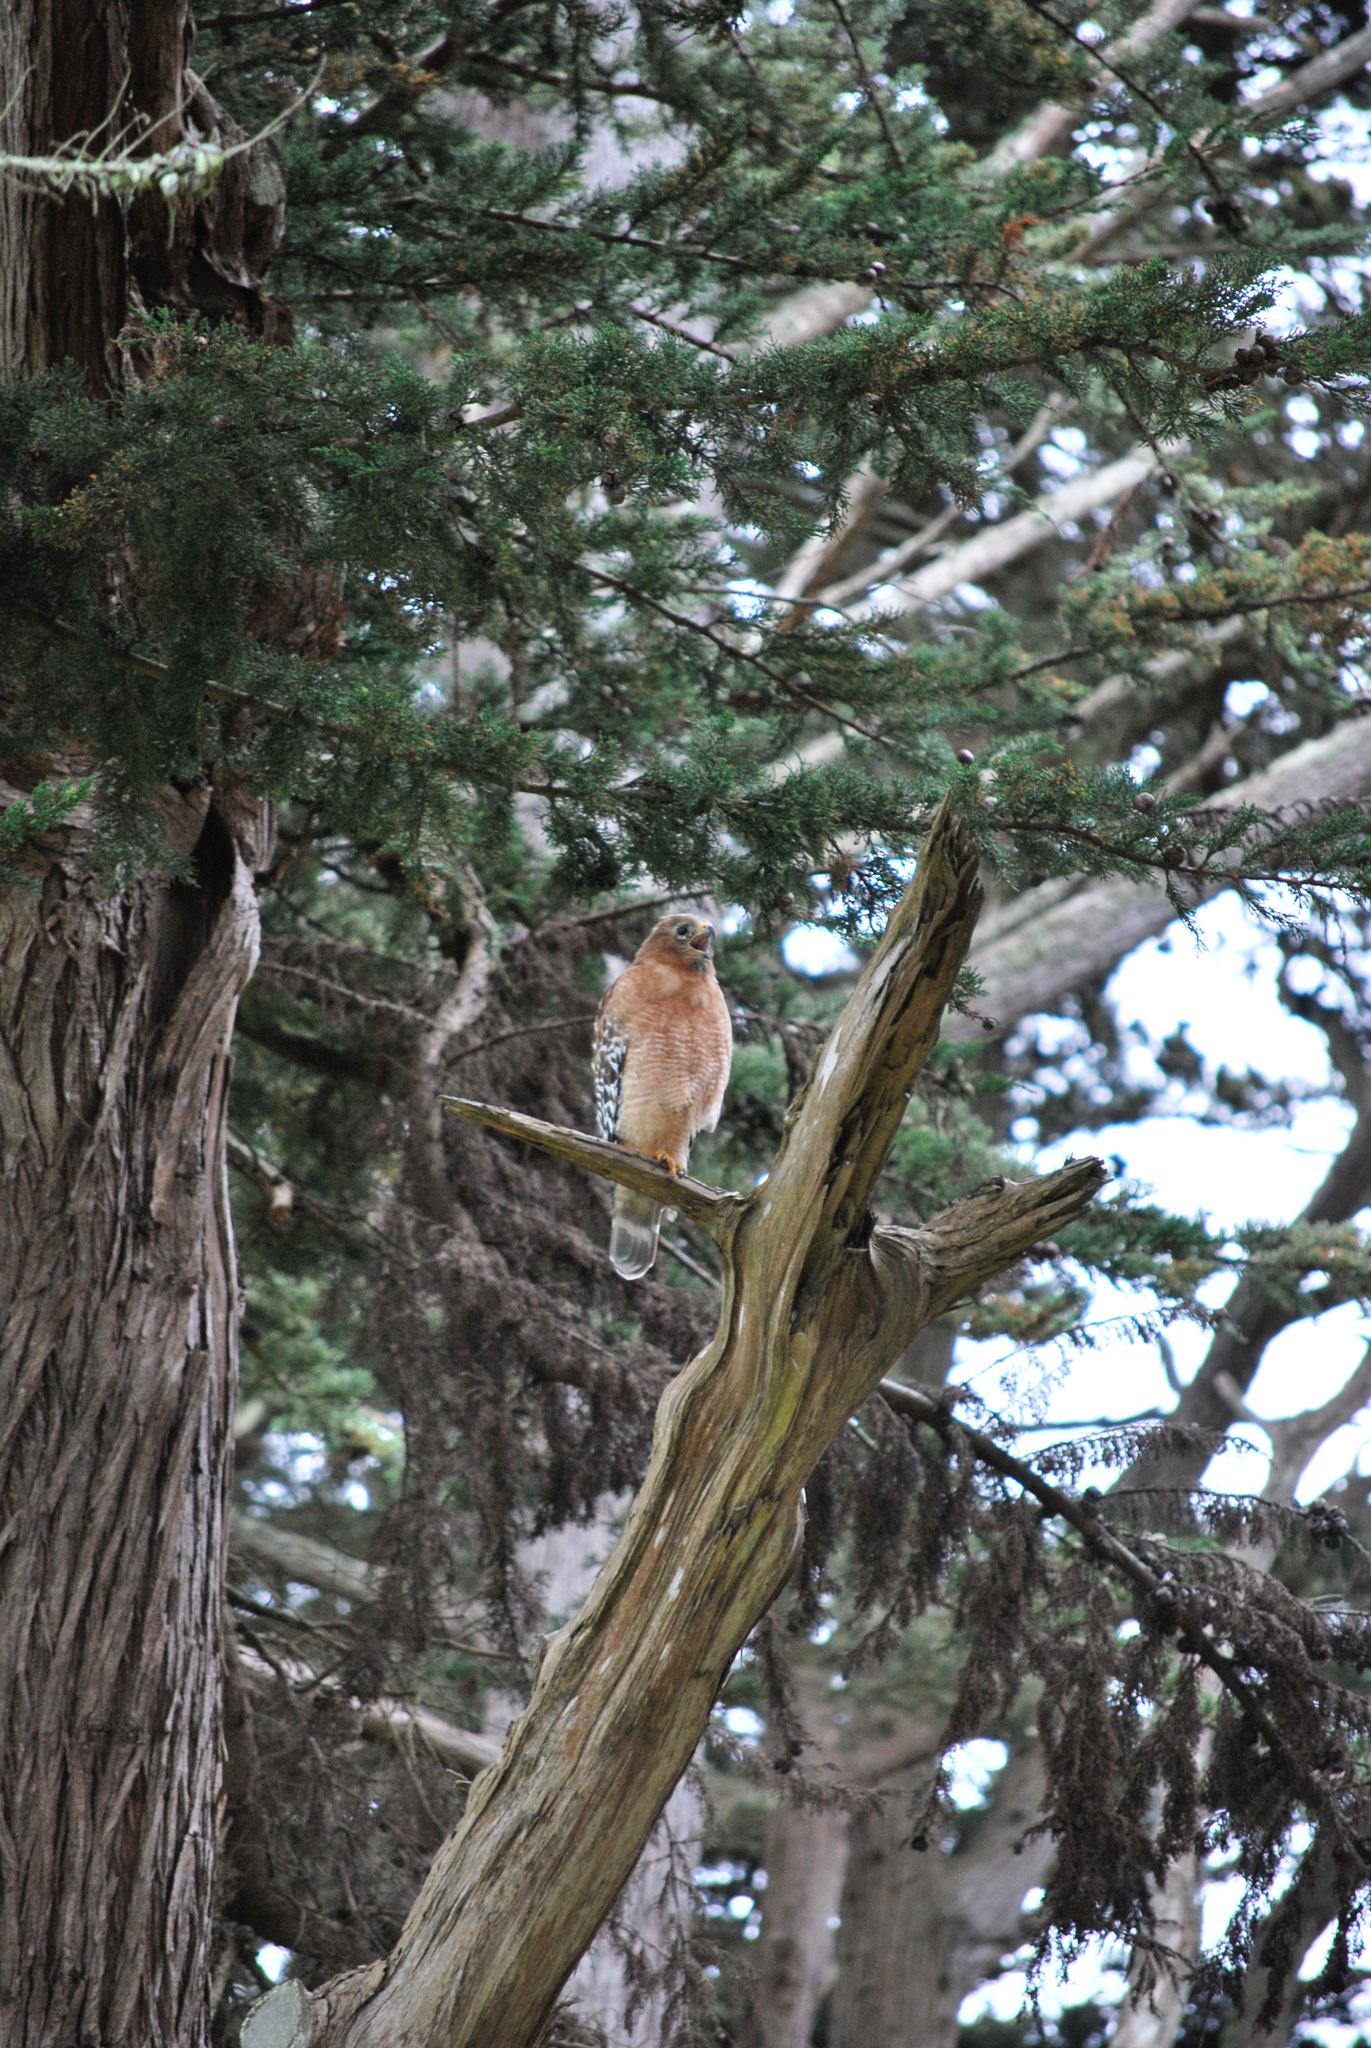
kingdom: Animalia
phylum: Chordata
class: Aves
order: Accipitriformes
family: Accipitridae
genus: Buteo
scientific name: Buteo lineatus
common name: Red-shouldered hawk
